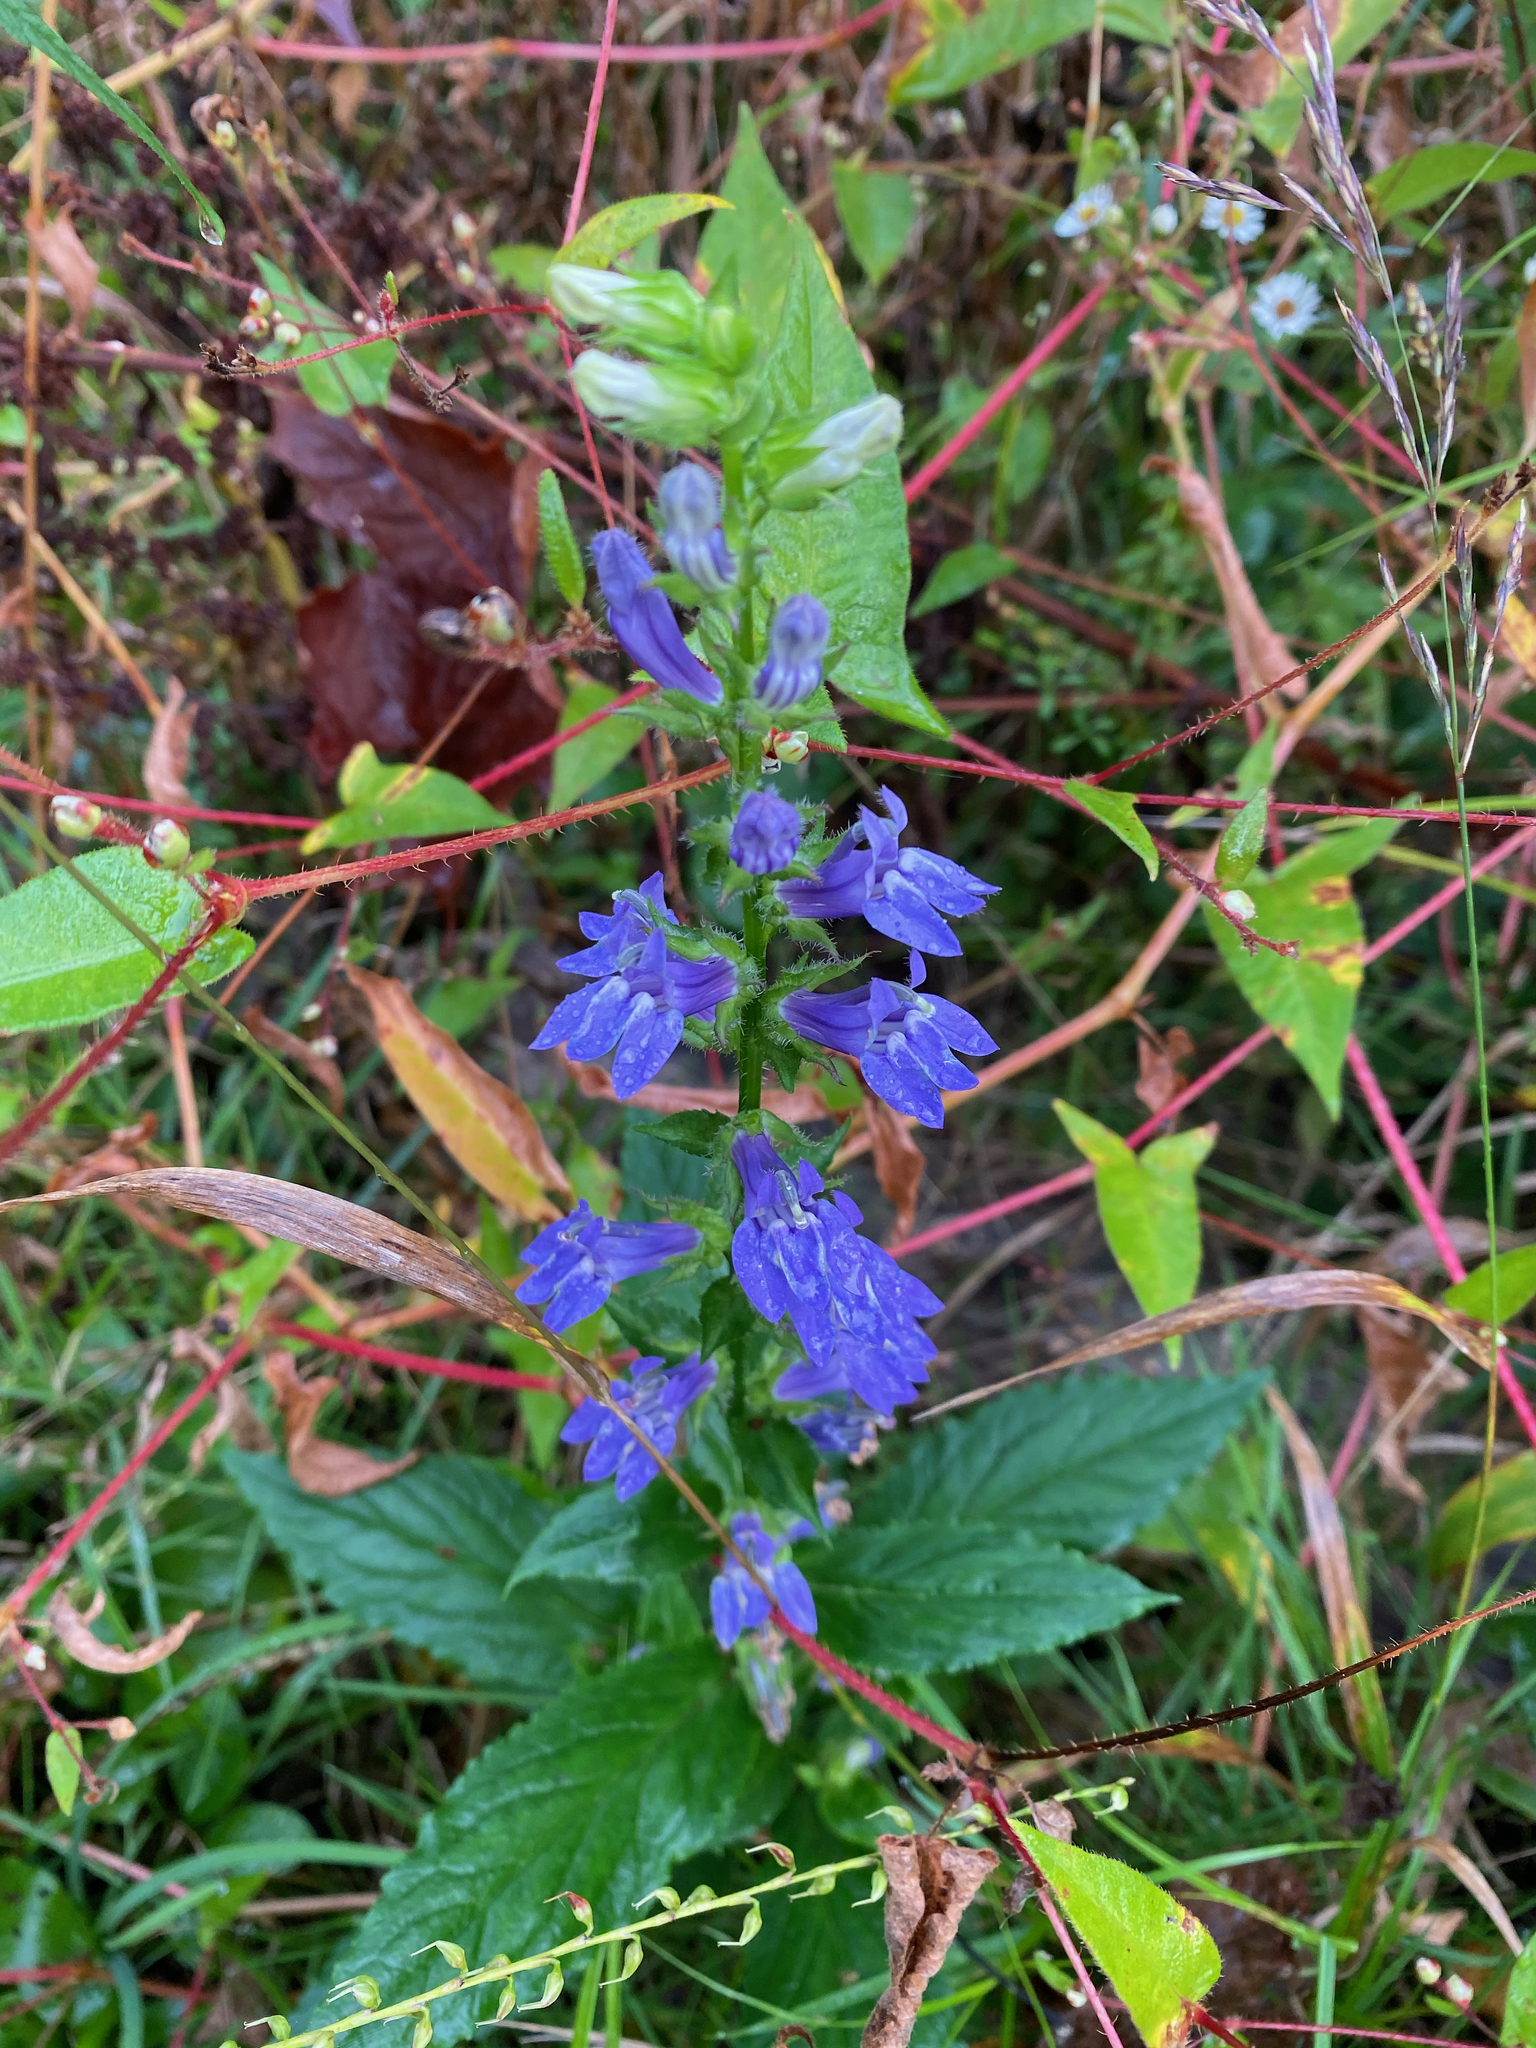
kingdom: Plantae
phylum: Tracheophyta
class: Magnoliopsida
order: Asterales
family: Campanulaceae
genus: Lobelia
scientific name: Lobelia siphilitica
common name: Great lobelia
